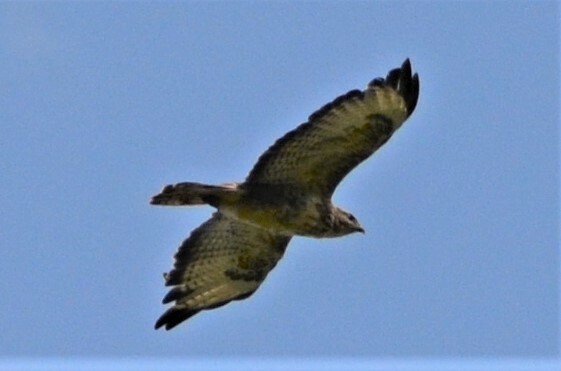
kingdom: Animalia
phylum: Chordata
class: Aves
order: Accipitriformes
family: Accipitridae
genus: Buteo
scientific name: Buteo buteo
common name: Common buzzard
